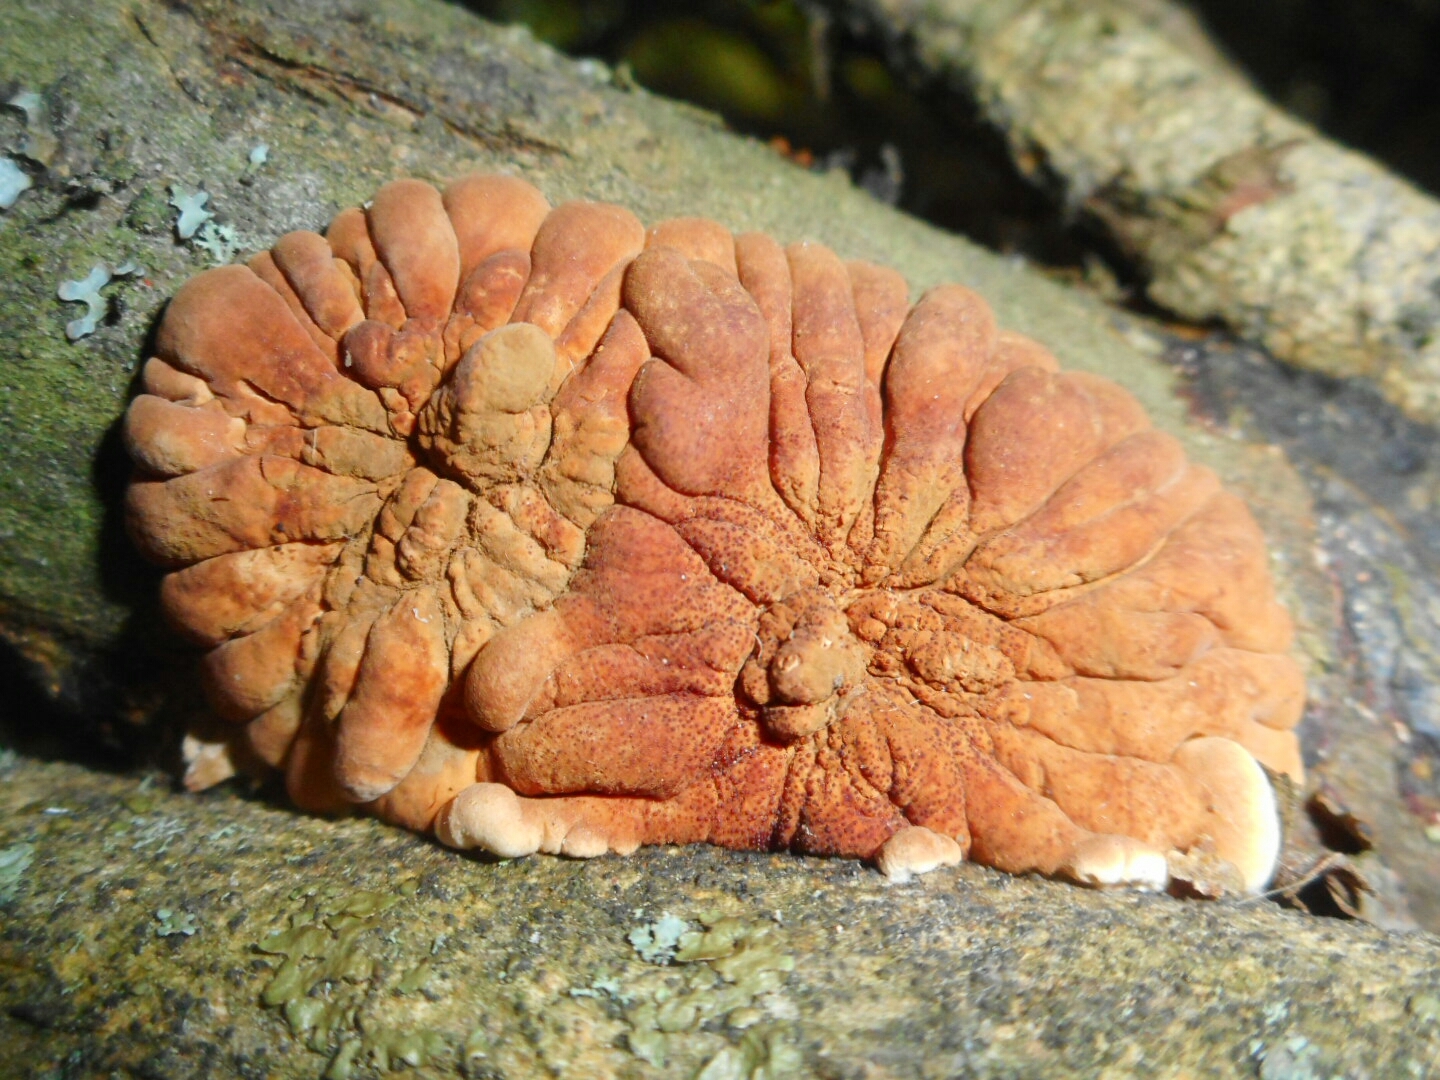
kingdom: Fungi
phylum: Ascomycota
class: Sordariomycetes
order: Hypocreales
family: Hypocreaceae
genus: Hypocreopsis
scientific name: Hypocreopsis lichenoides
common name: Willow gloves
